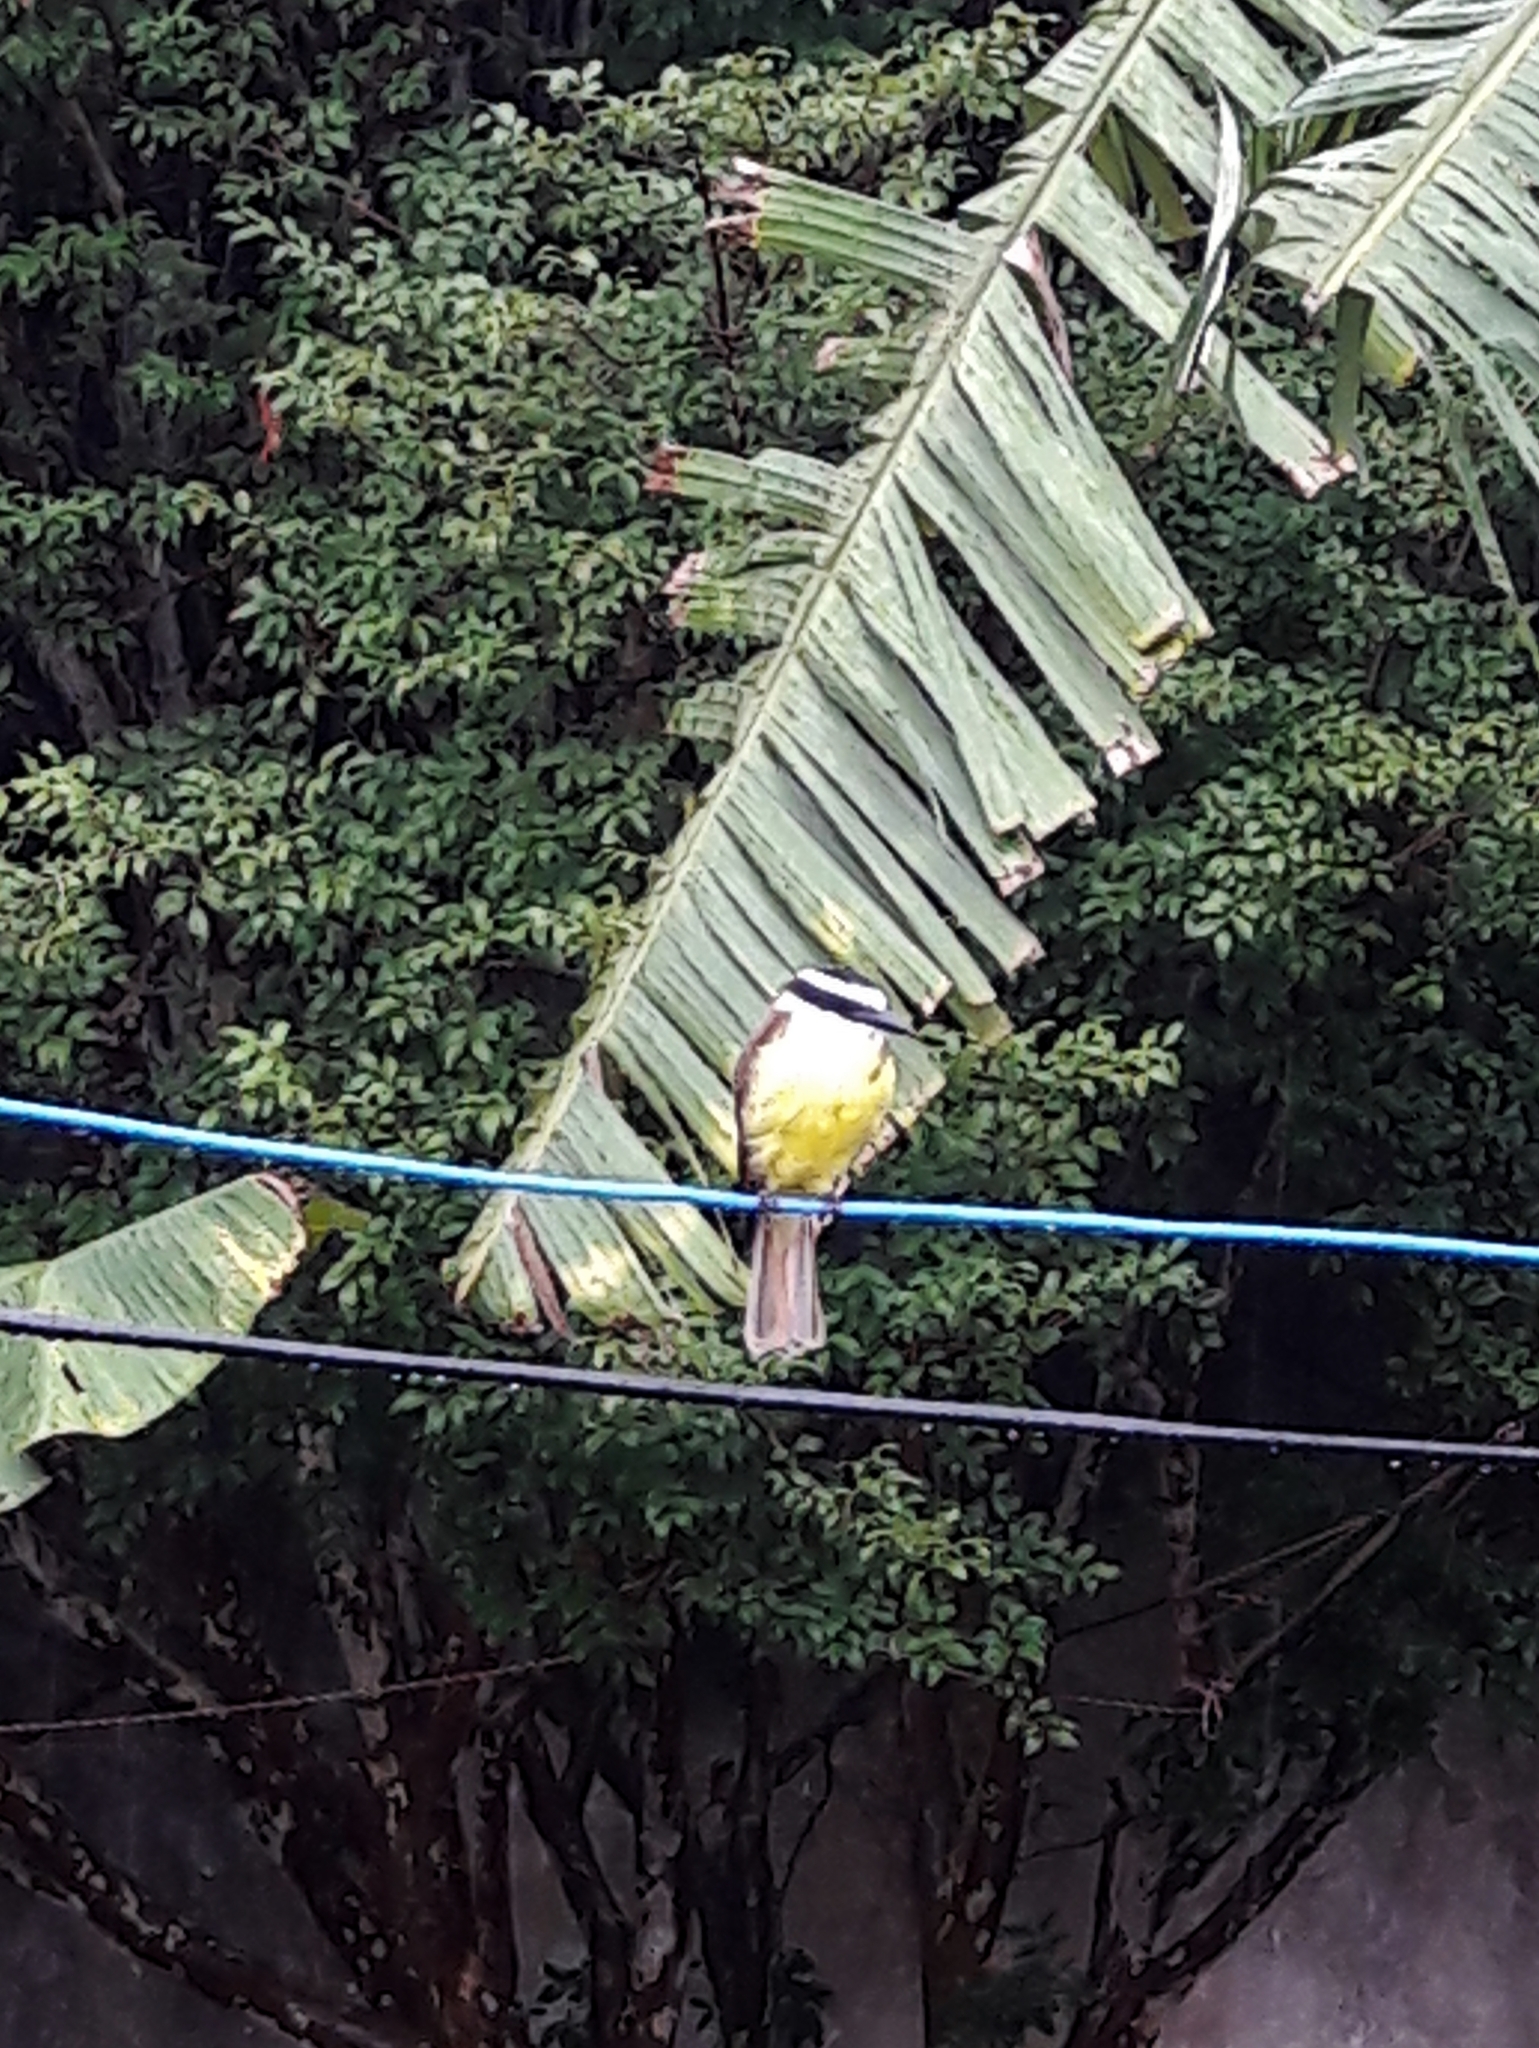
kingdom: Animalia
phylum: Chordata
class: Aves
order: Passeriformes
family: Tyrannidae
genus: Pitangus
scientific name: Pitangus sulphuratus
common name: Great kiskadee
